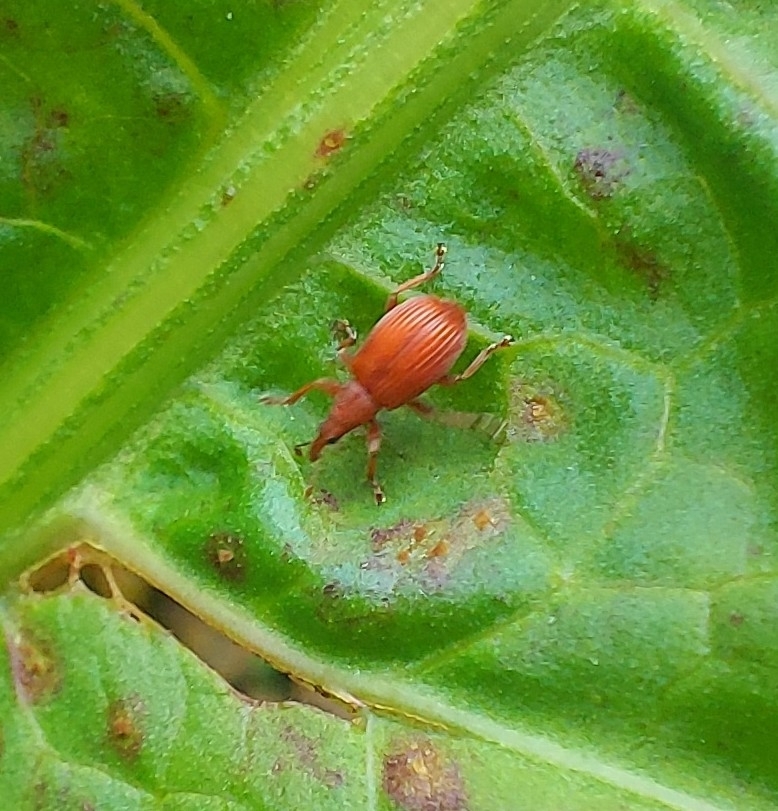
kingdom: Animalia
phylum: Arthropoda
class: Insecta
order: Coleoptera
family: Apionidae
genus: Apion
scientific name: Apion frumentarium
